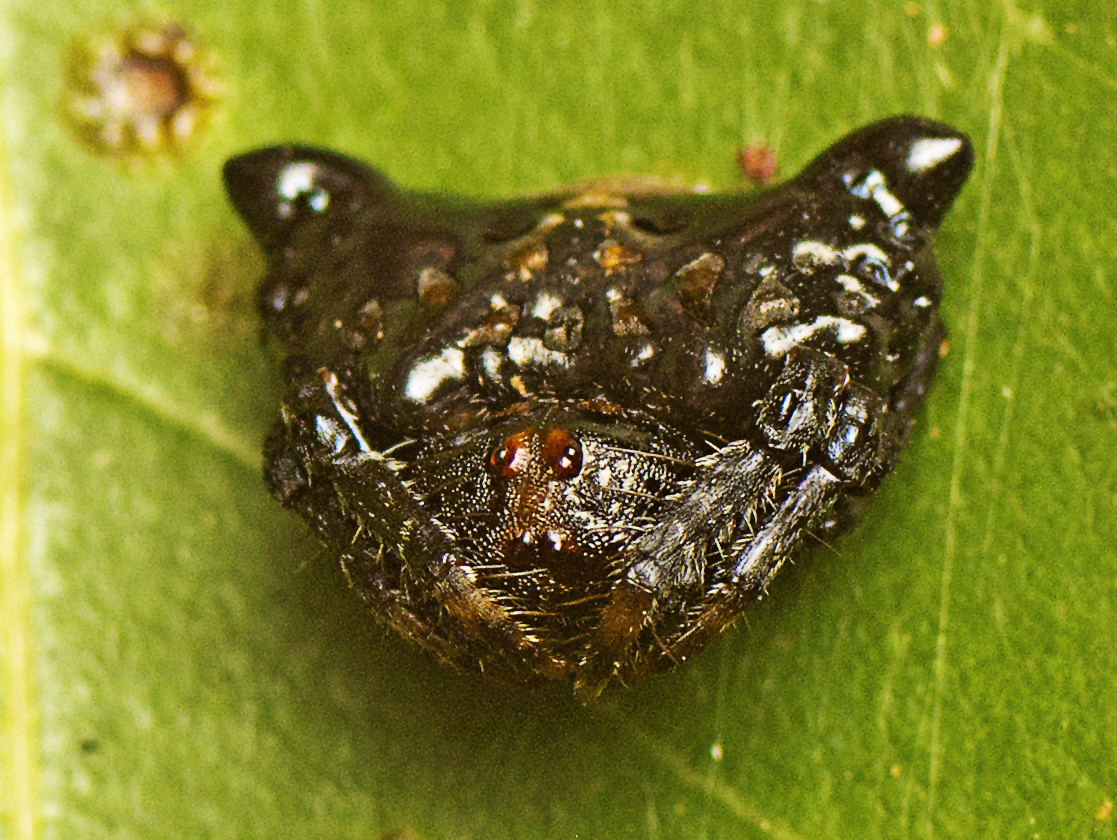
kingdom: Animalia
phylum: Arthropoda
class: Arachnida
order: Araneae
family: Arkyidae
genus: Arkys
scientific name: Arkys curtulus
